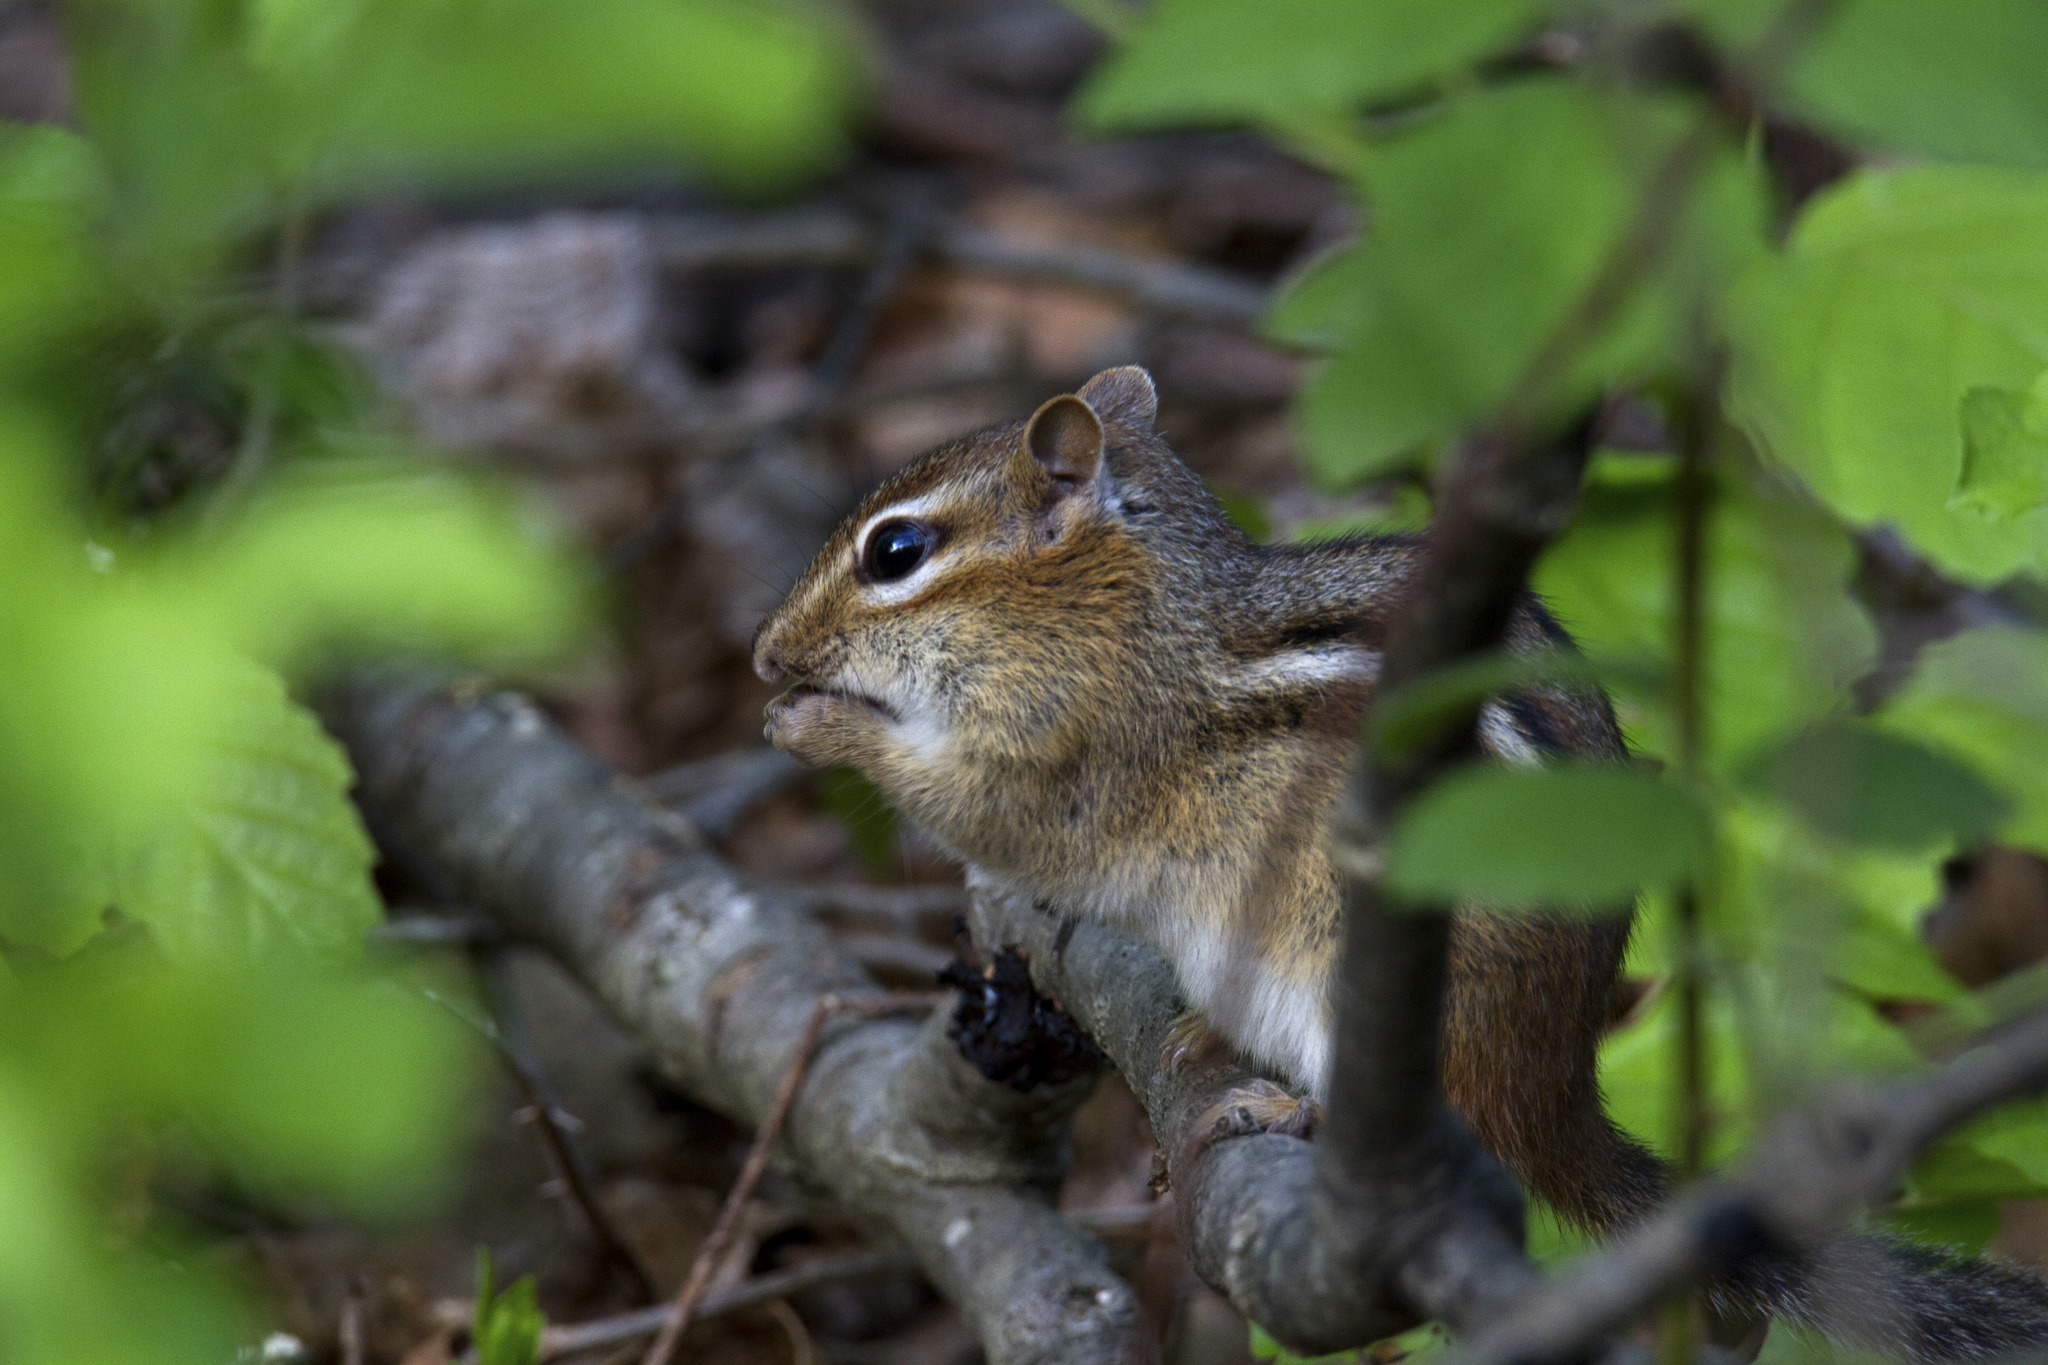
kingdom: Animalia
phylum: Chordata
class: Mammalia
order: Rodentia
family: Sciuridae
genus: Tamias
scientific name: Tamias striatus
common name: Eastern chipmunk
